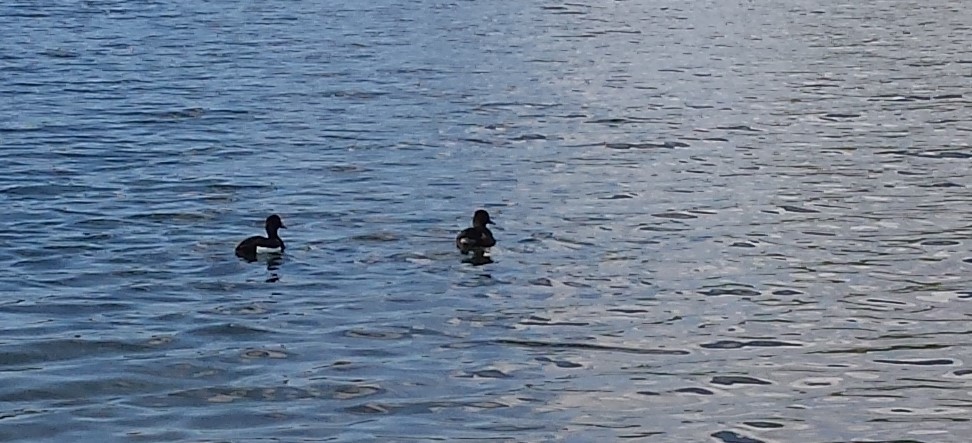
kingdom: Animalia
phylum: Chordata
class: Aves
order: Anseriformes
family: Anatidae
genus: Aythya
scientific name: Aythya fuligula
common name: Tufted duck
